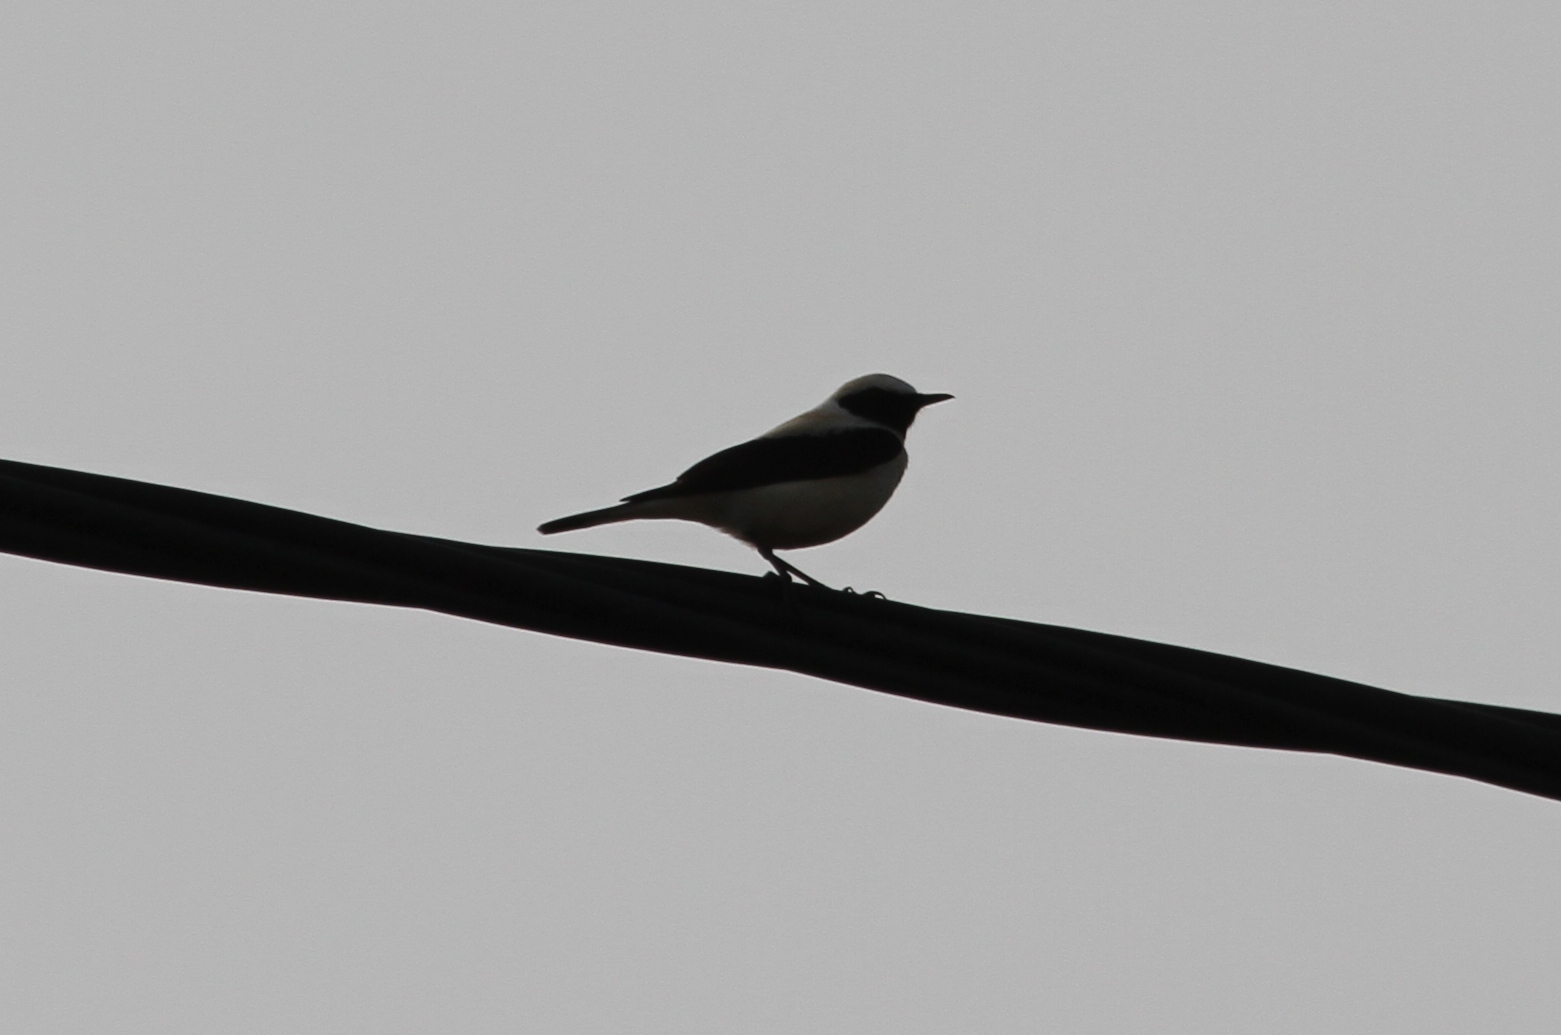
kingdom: Animalia
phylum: Chordata
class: Aves
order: Passeriformes
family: Muscicapidae
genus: Oenanthe
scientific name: Oenanthe hispanica
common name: Black-eared wheatear
